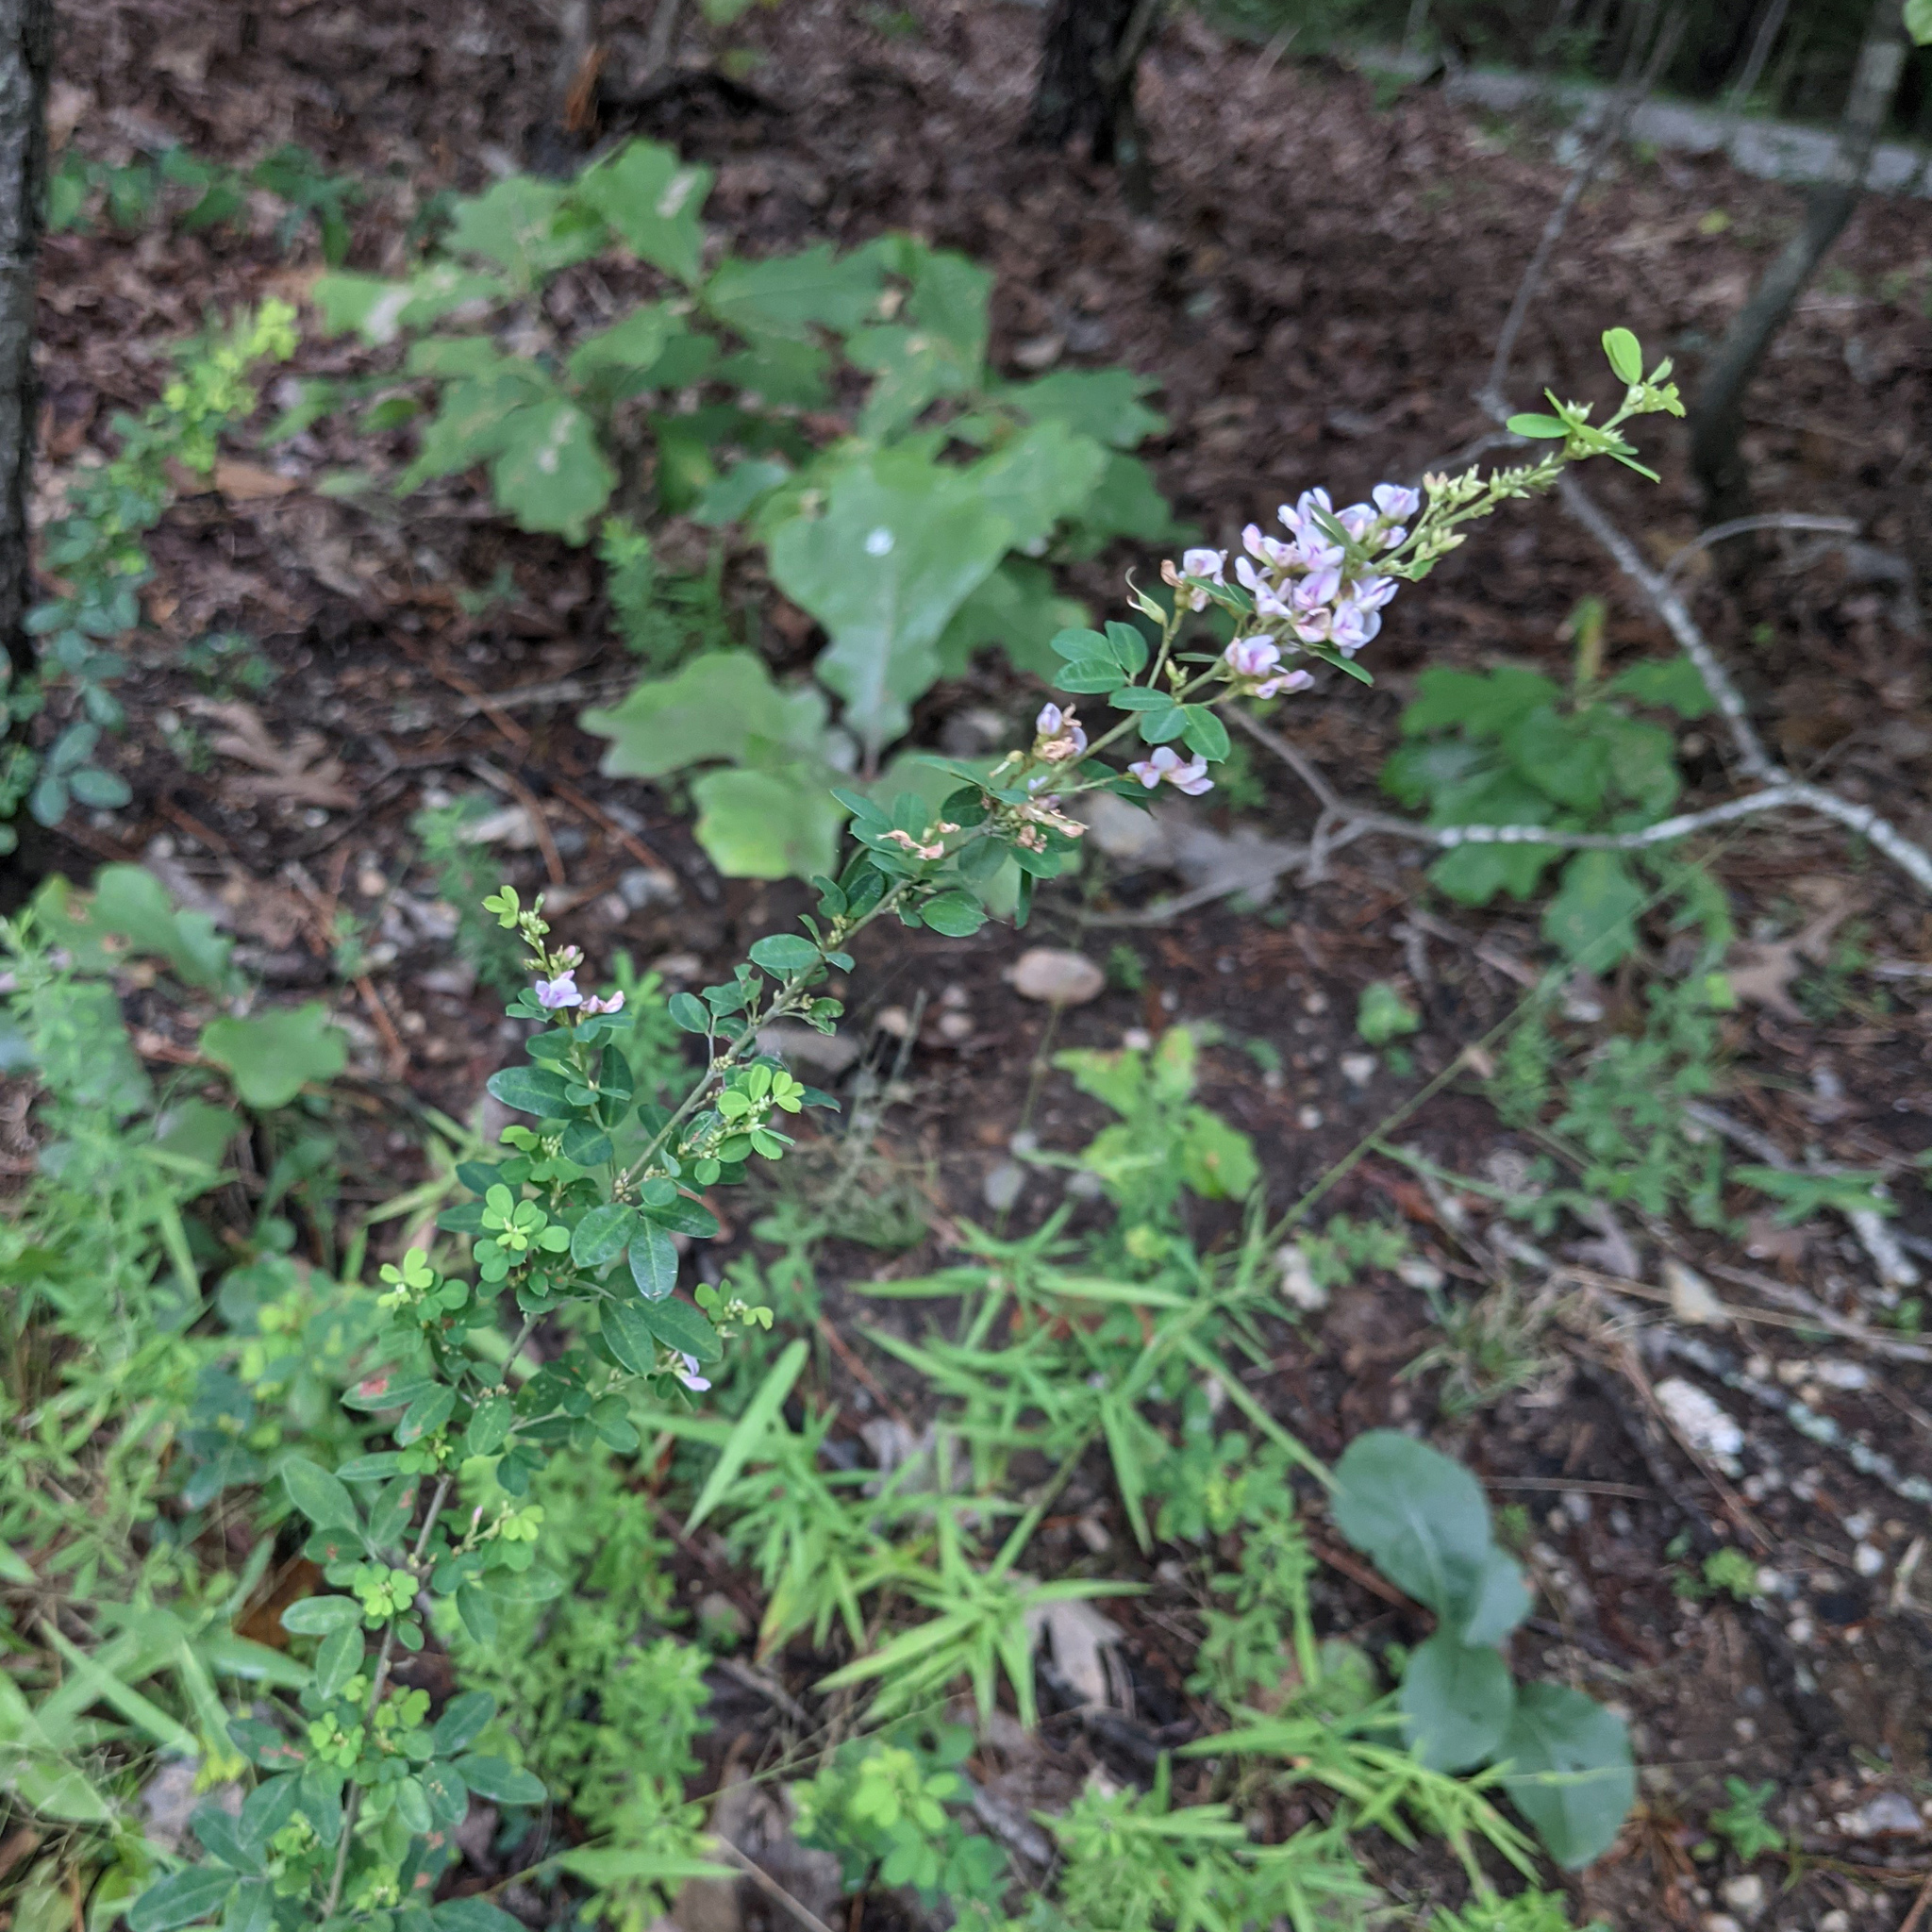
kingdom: Plantae
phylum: Tracheophyta
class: Magnoliopsida
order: Fabales
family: Fabaceae
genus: Lespedeza
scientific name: Lespedeza violacea
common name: Wand bush-clover
